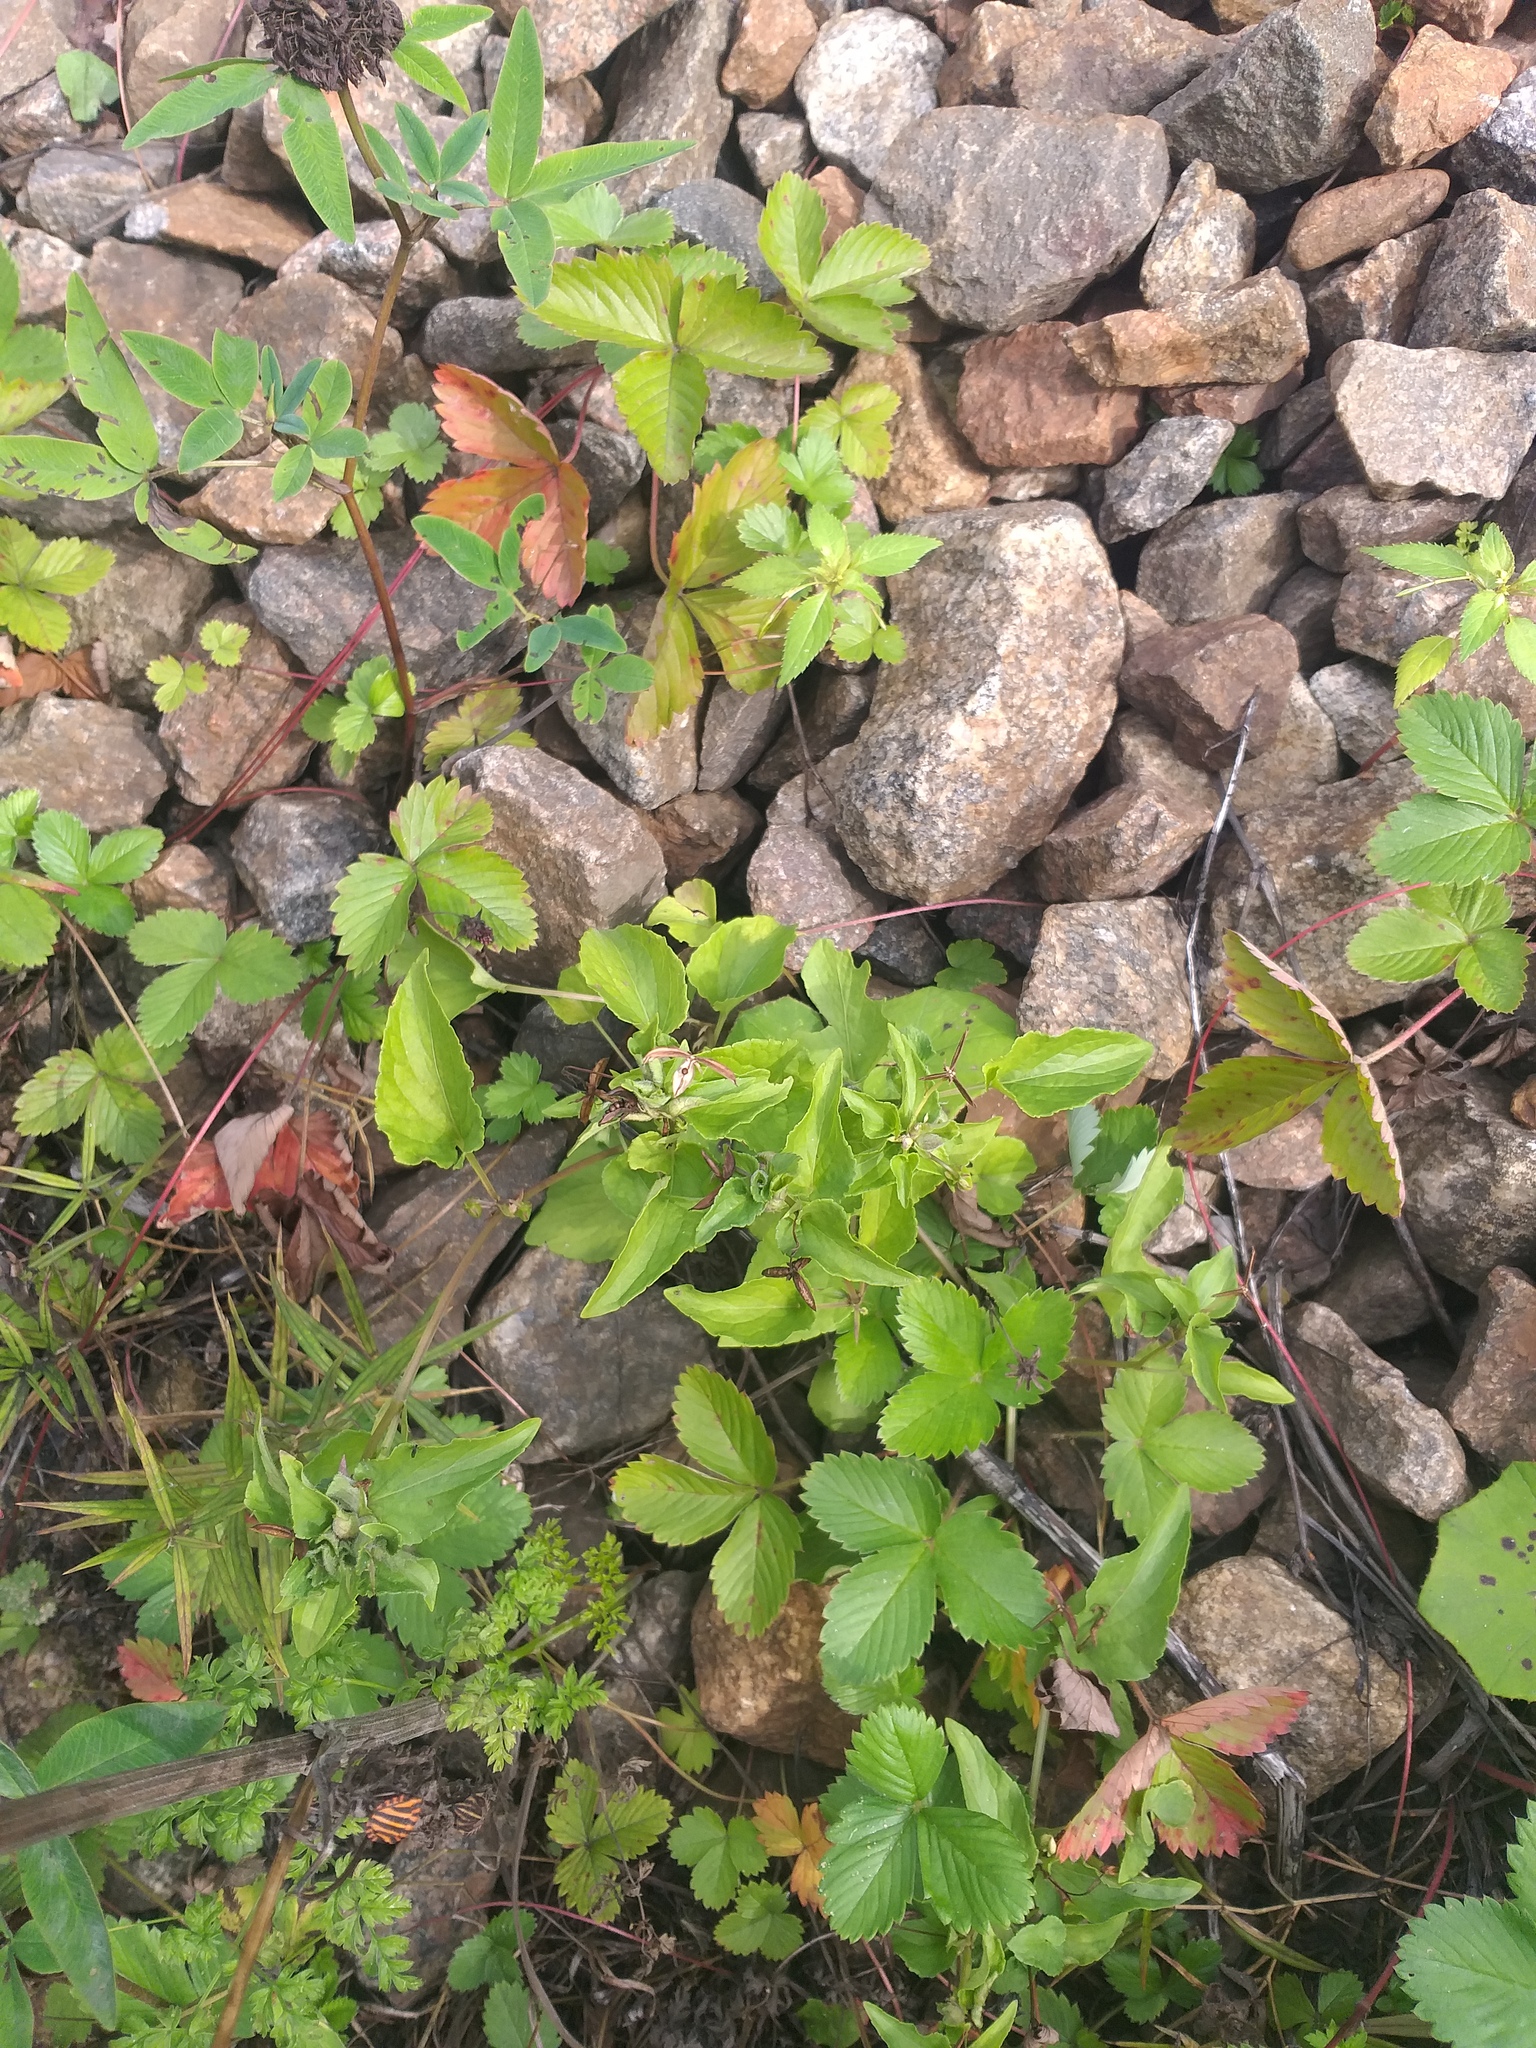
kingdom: Plantae
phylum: Tracheophyta
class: Magnoliopsida
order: Malpighiales
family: Violaceae
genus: Viola
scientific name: Viola canina
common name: Heath dog-violet
